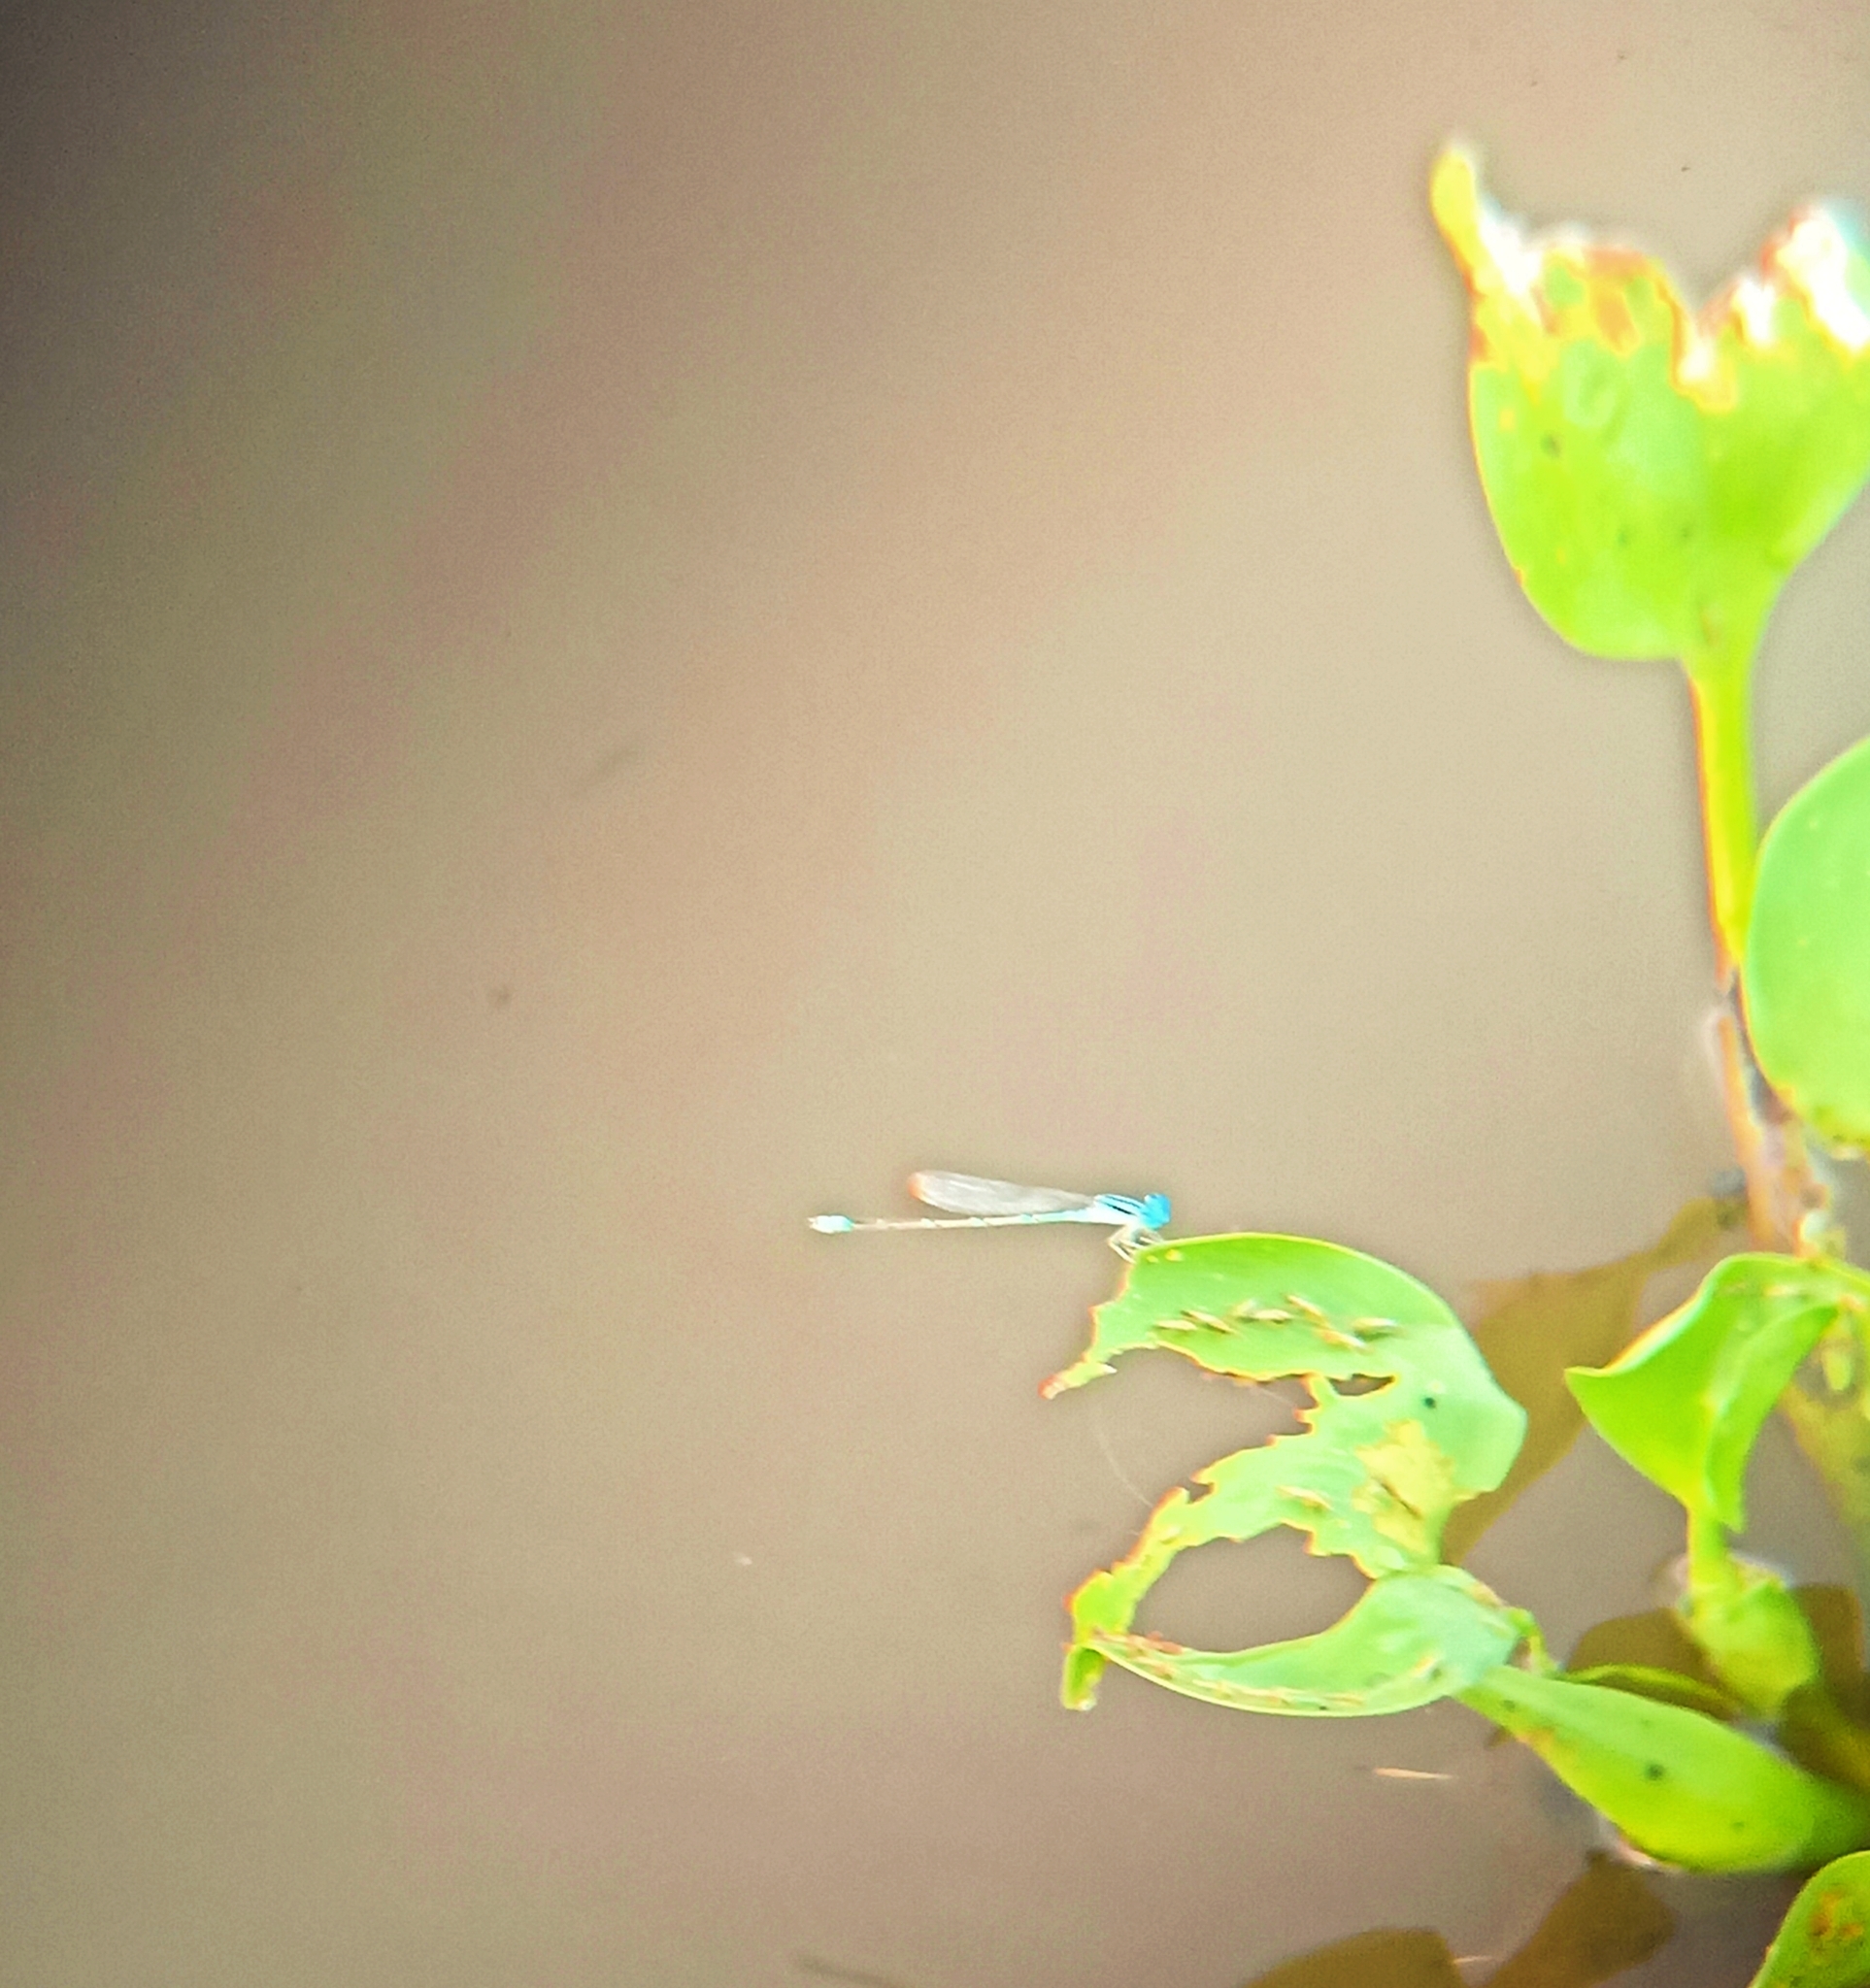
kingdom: Animalia
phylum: Arthropoda
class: Insecta
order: Odonata
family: Coenagrionidae
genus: Pseudagrion
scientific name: Pseudagrion microcephalum
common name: Blue riverdamsel
